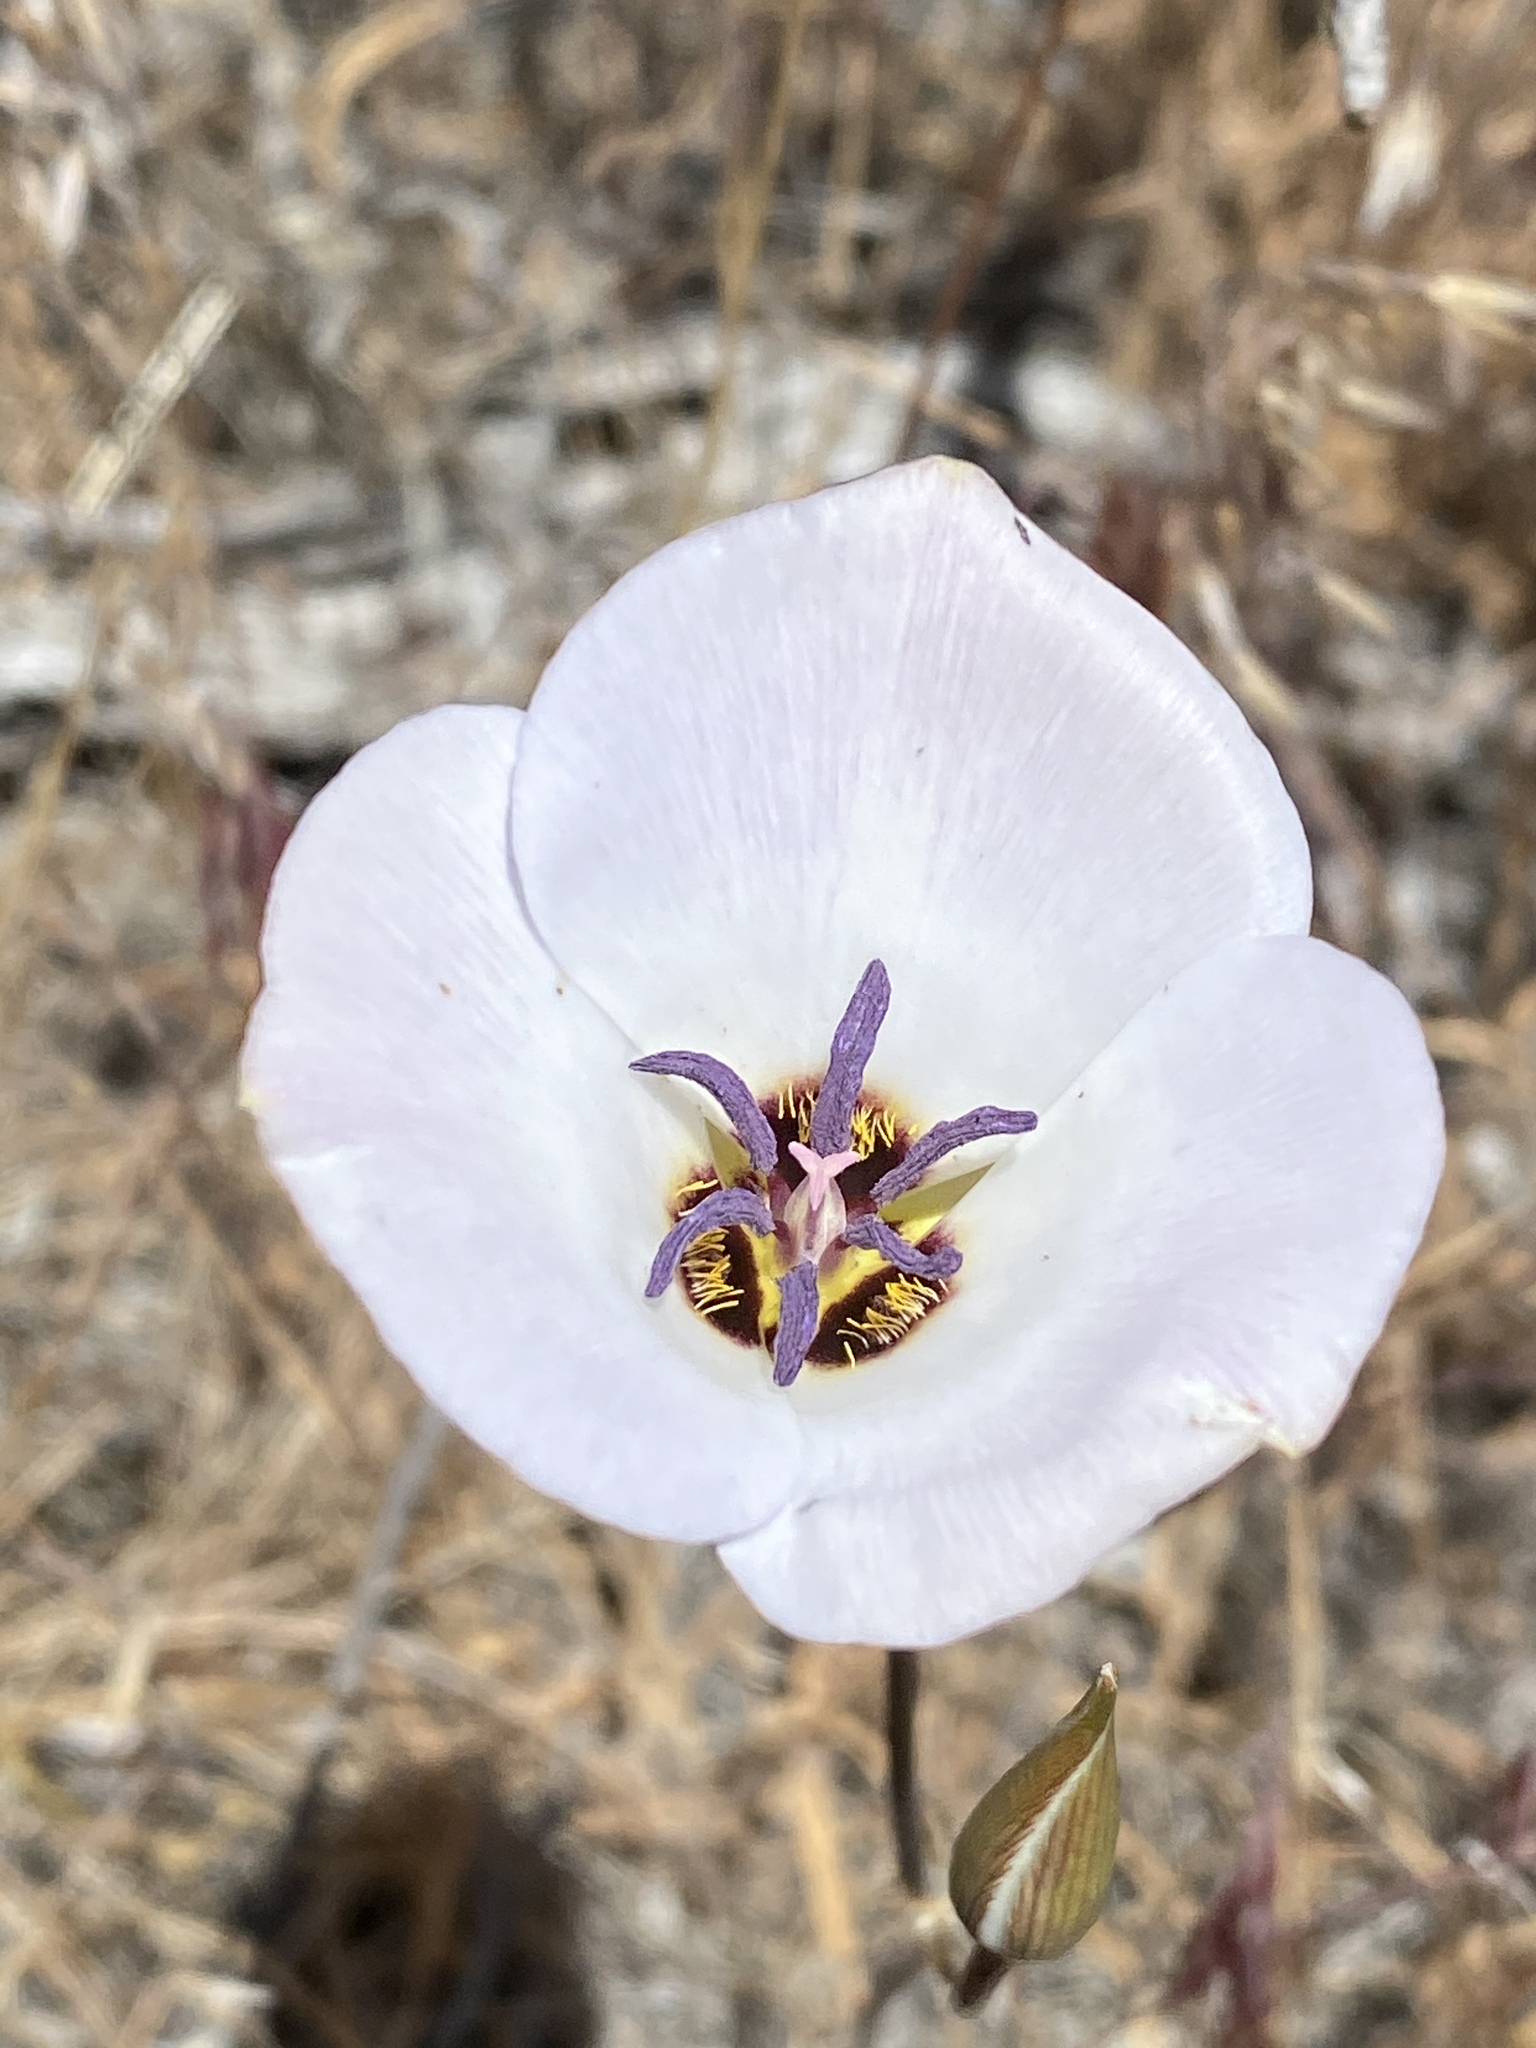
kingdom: Plantae
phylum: Tracheophyta
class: Liliopsida
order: Liliales
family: Liliaceae
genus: Calochortus
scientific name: Calochortus invenustus
